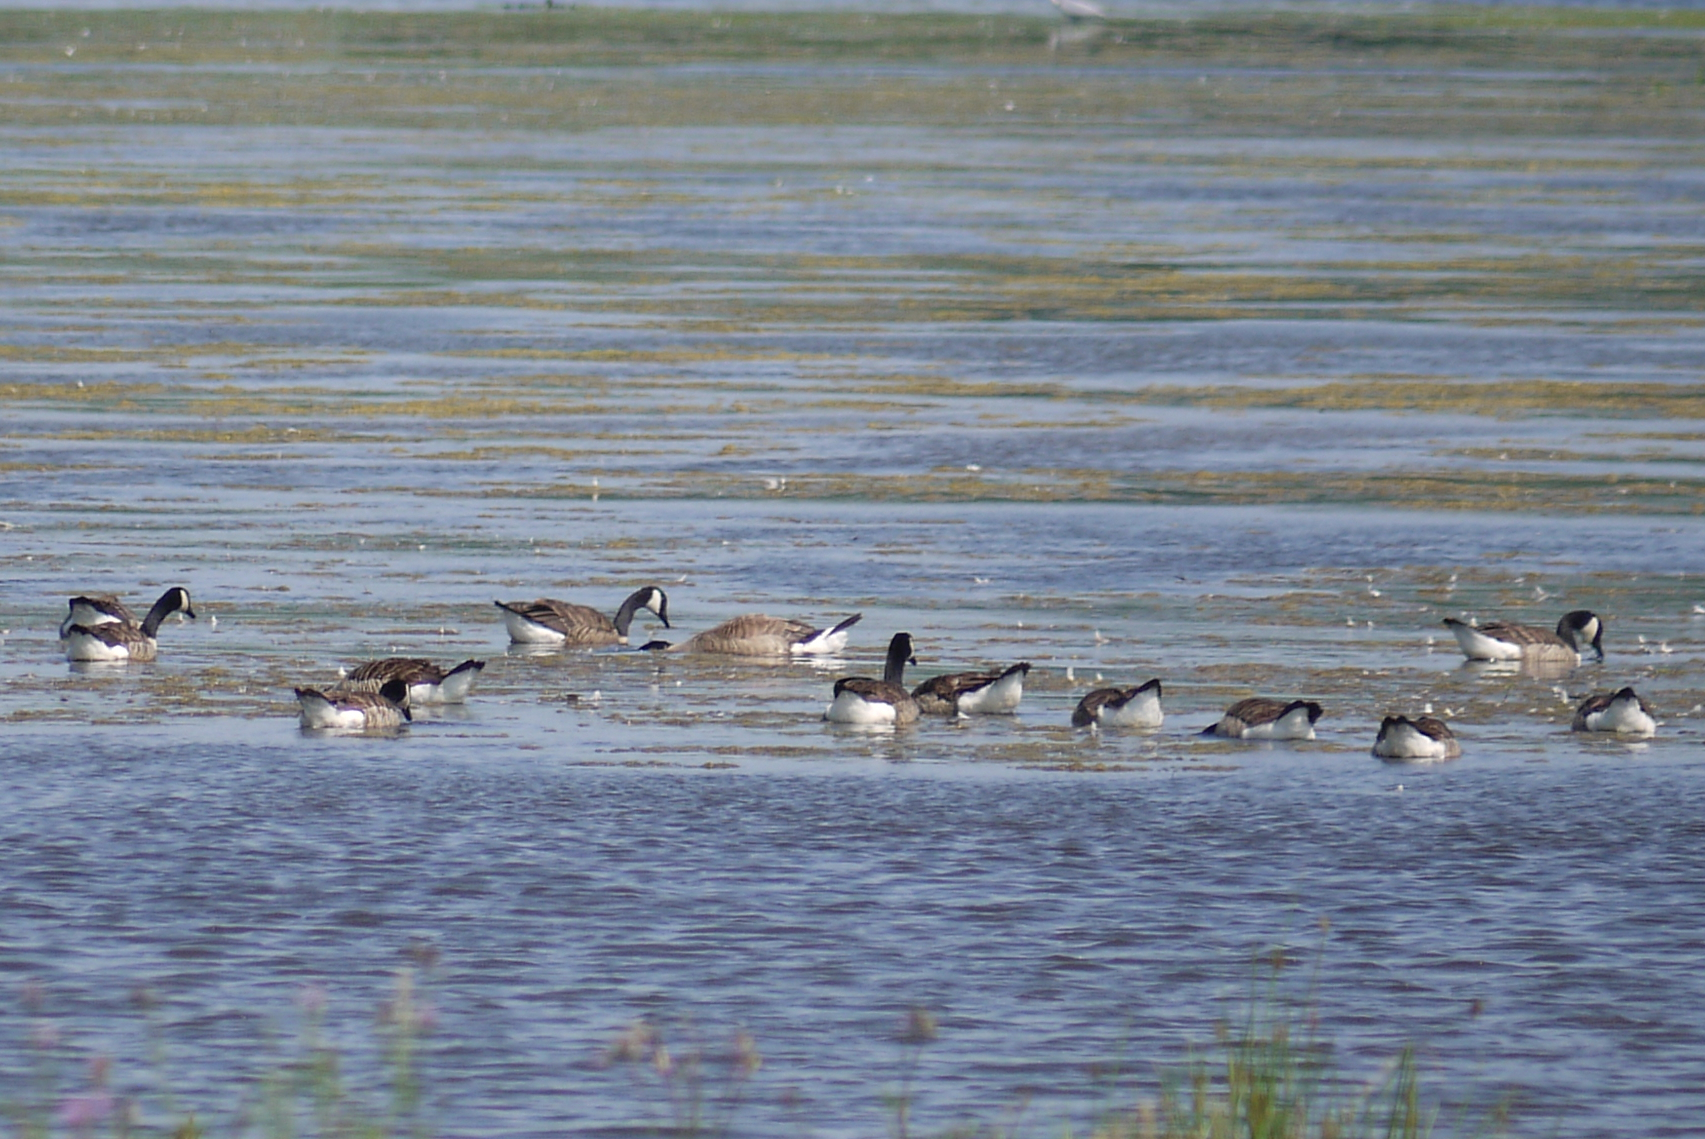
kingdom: Animalia
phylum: Chordata
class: Aves
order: Anseriformes
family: Anatidae
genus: Branta
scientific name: Branta canadensis
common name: Canada goose
